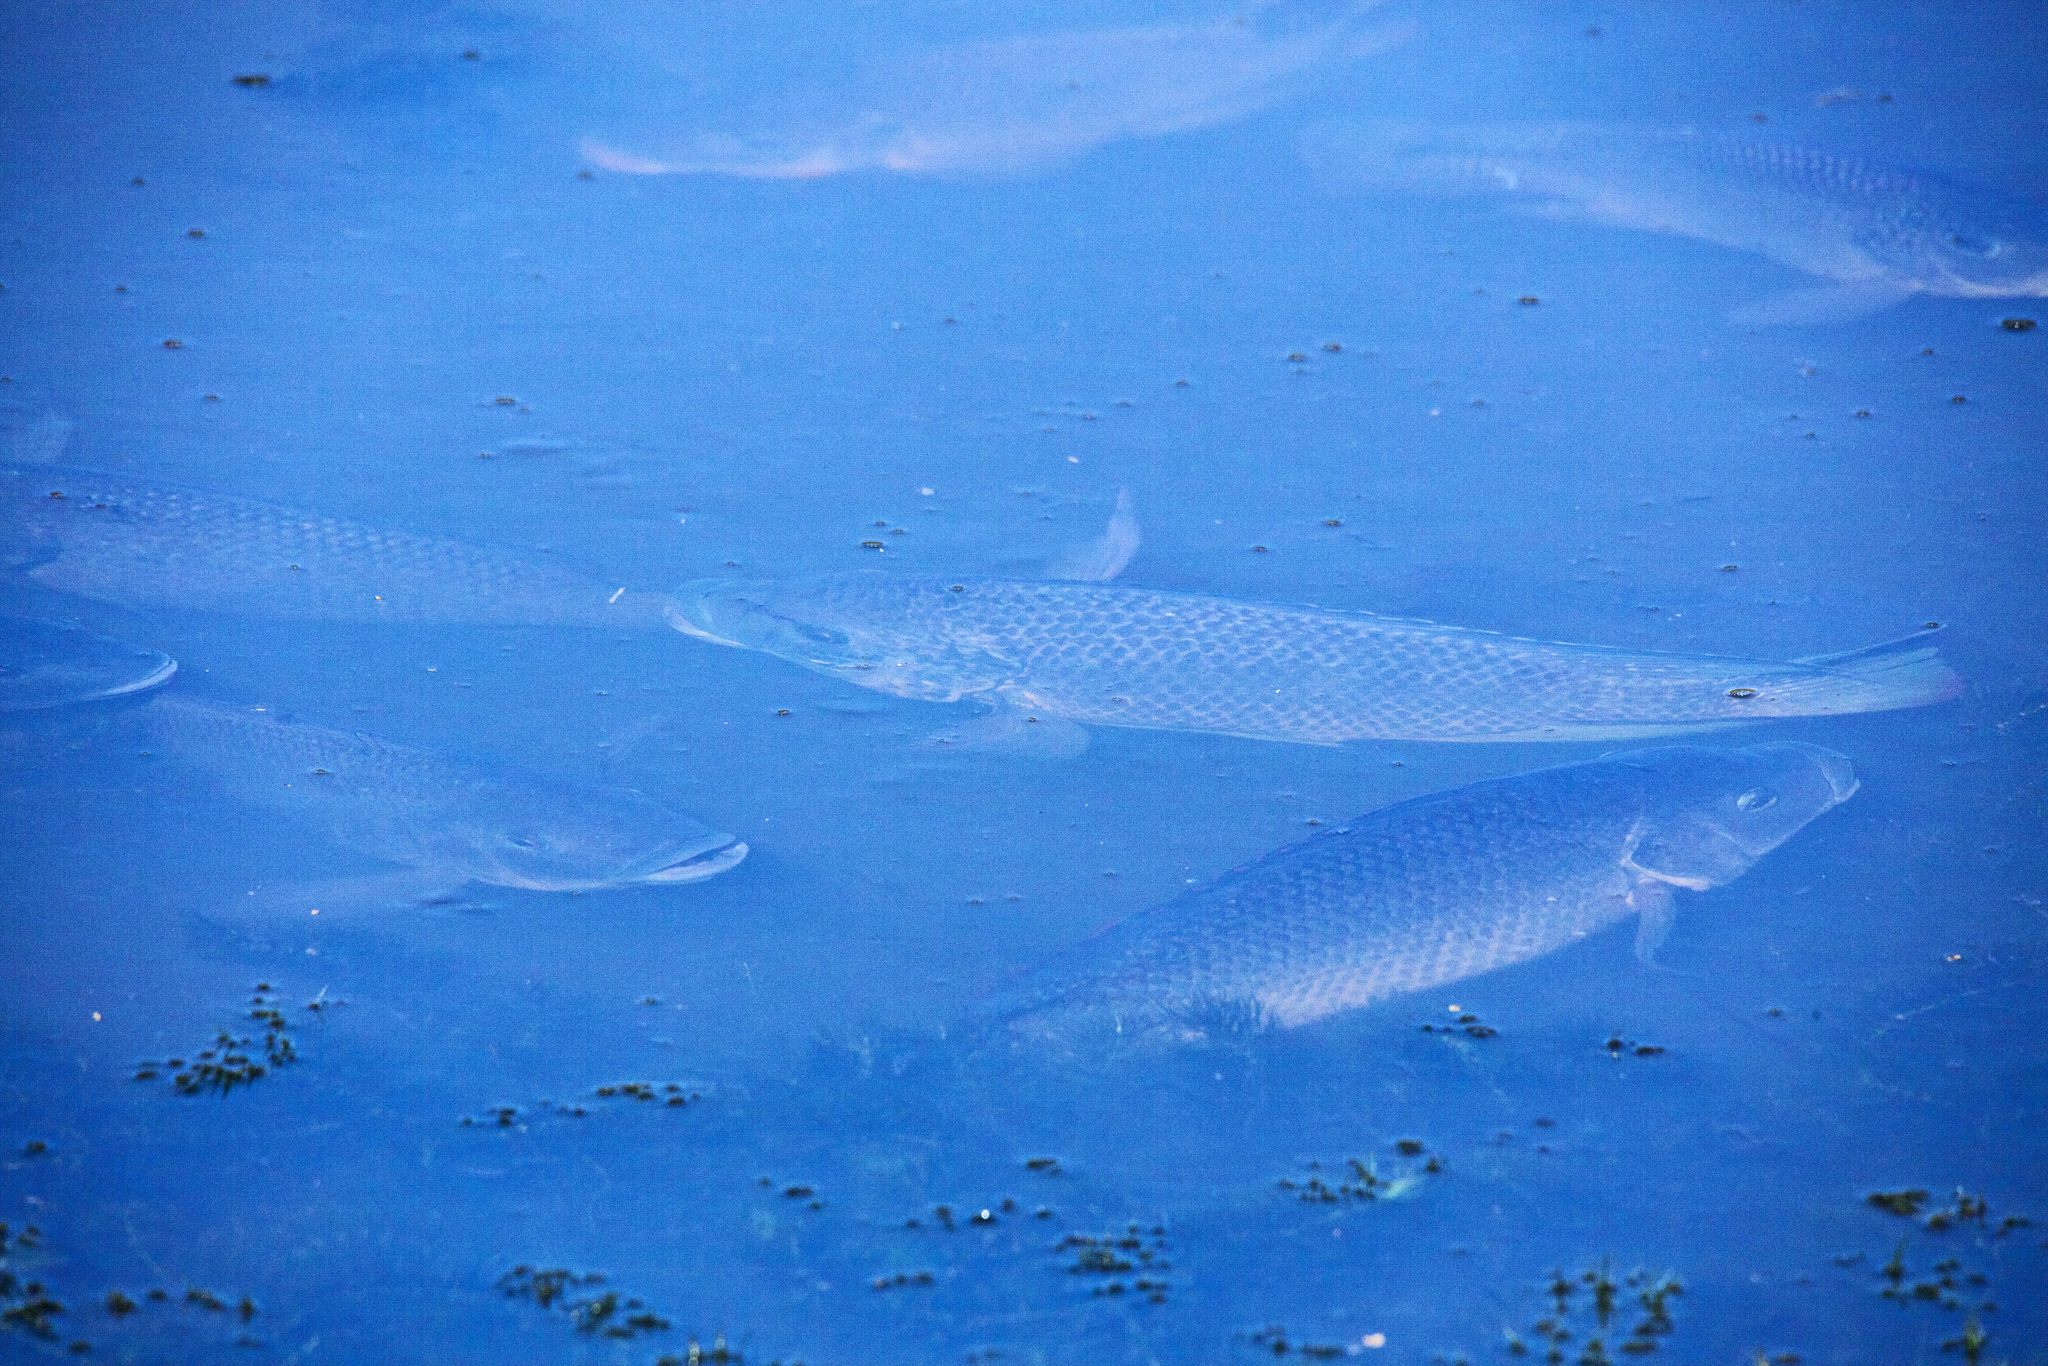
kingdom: Animalia
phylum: Chordata
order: Perciformes
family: Cichlidae
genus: Oreochromis
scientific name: Oreochromis mossambicus
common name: Mozambique tilapia
